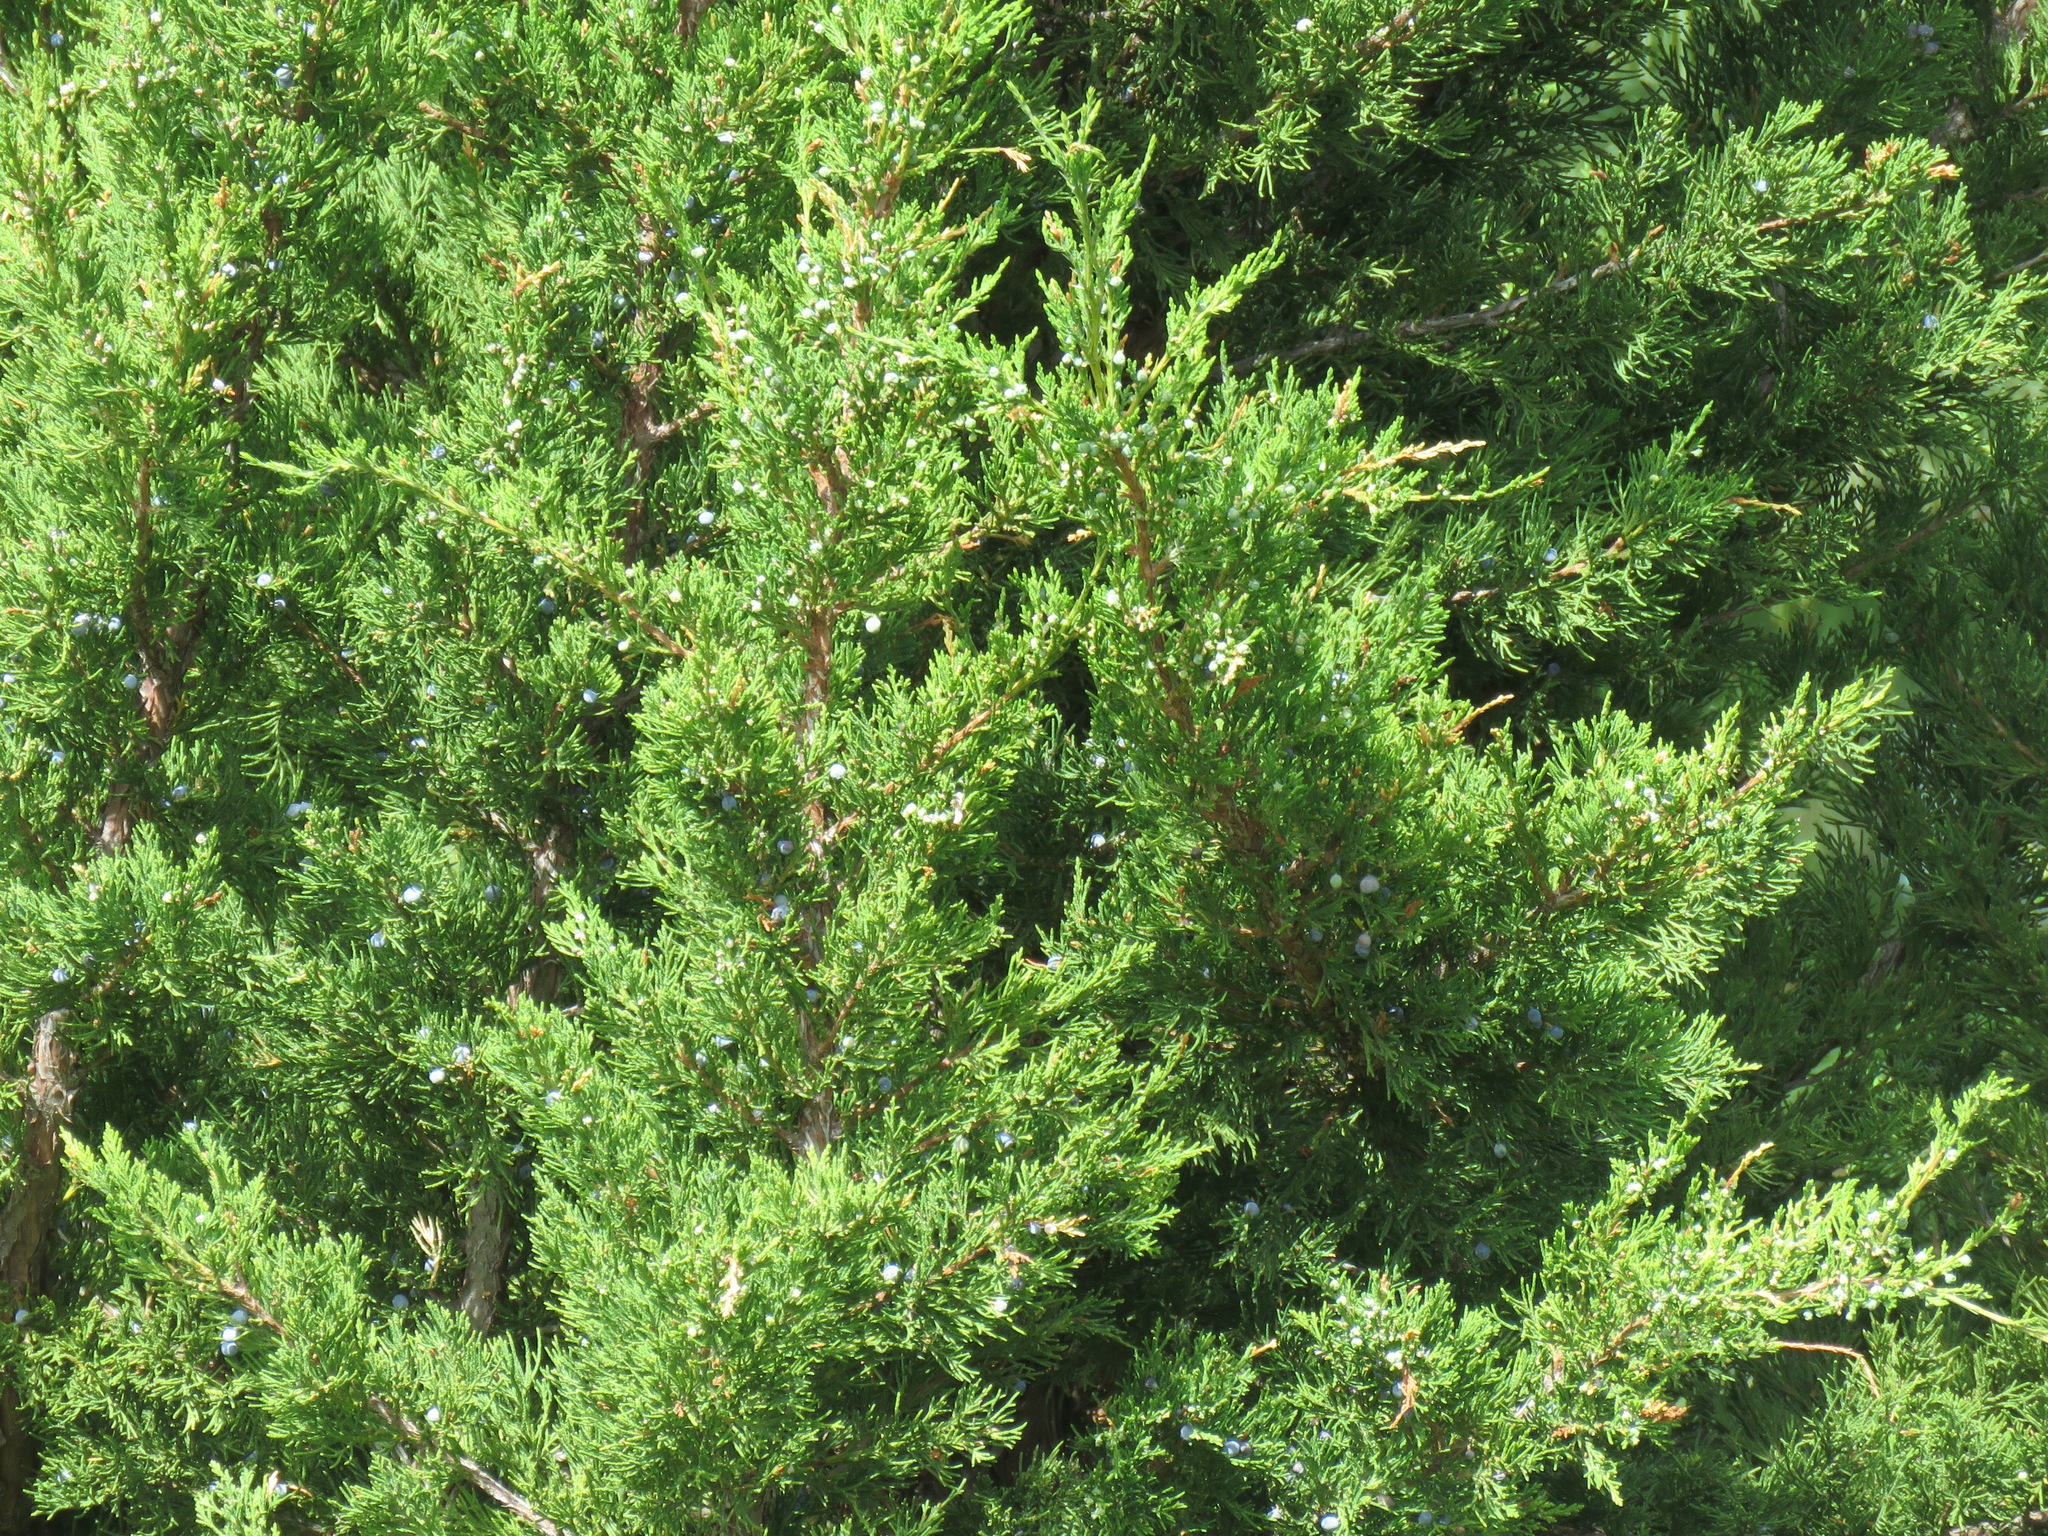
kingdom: Plantae
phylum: Tracheophyta
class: Pinopsida
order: Pinales
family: Cupressaceae
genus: Juniperus
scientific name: Juniperus scopulorum
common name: Rocky mountain juniper
